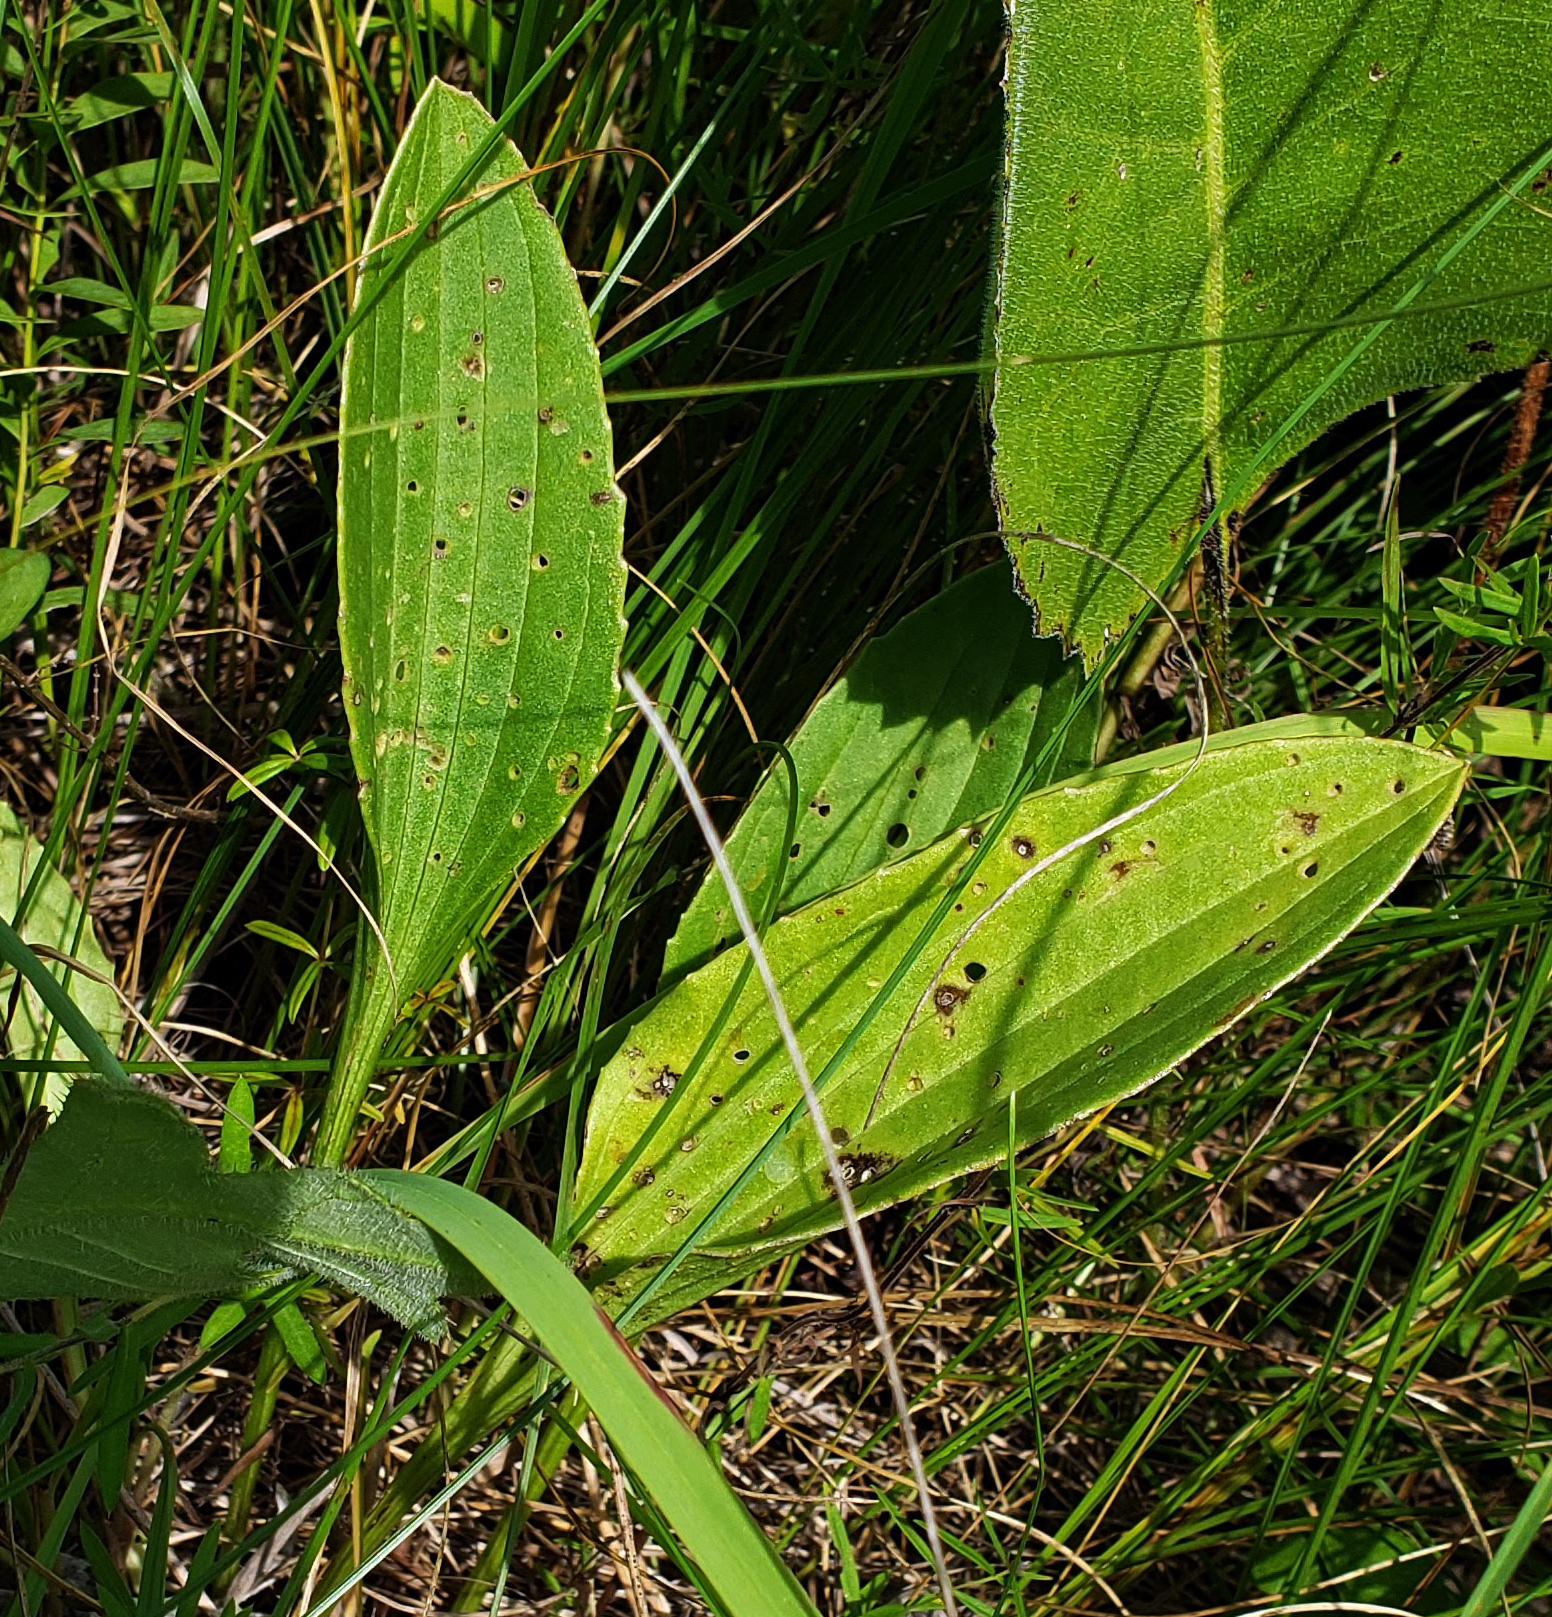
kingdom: Plantae
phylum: Tracheophyta
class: Magnoliopsida
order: Asterales
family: Asteraceae
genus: Arnoglossum
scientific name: Arnoglossum plantagineum
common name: Groove-stemmed indian-plantain
